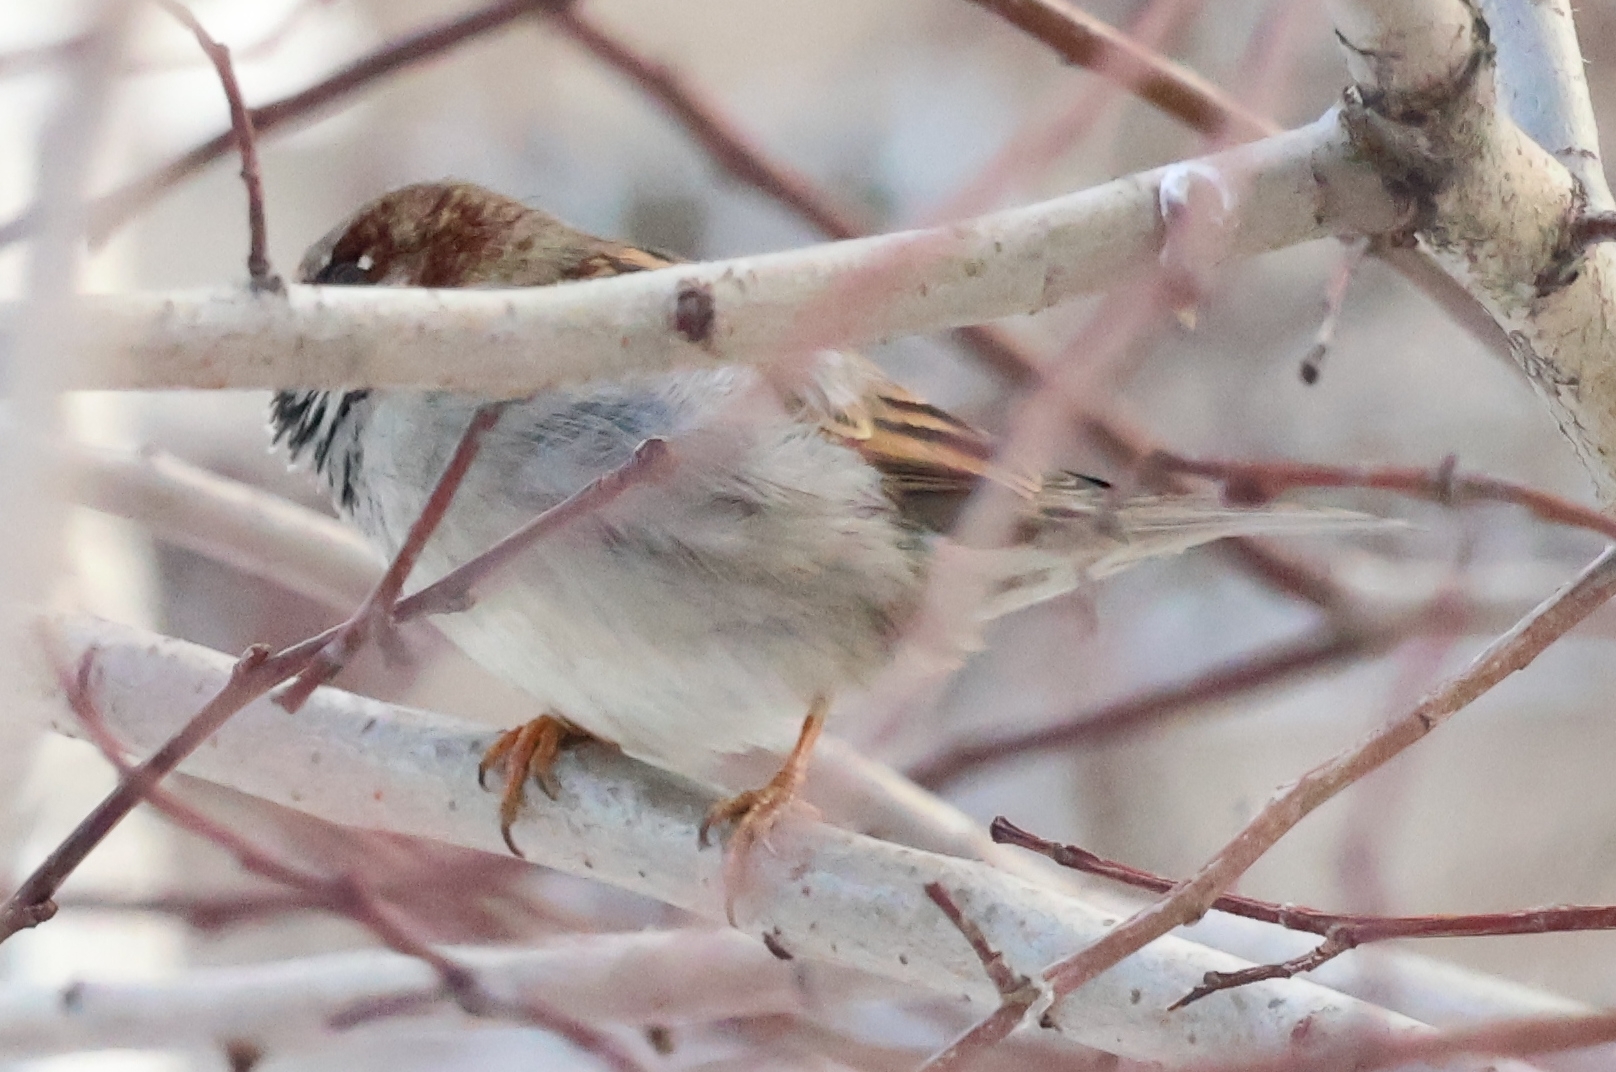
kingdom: Animalia
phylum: Chordata
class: Aves
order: Passeriformes
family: Passeridae
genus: Passer
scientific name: Passer domesticus
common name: House sparrow
